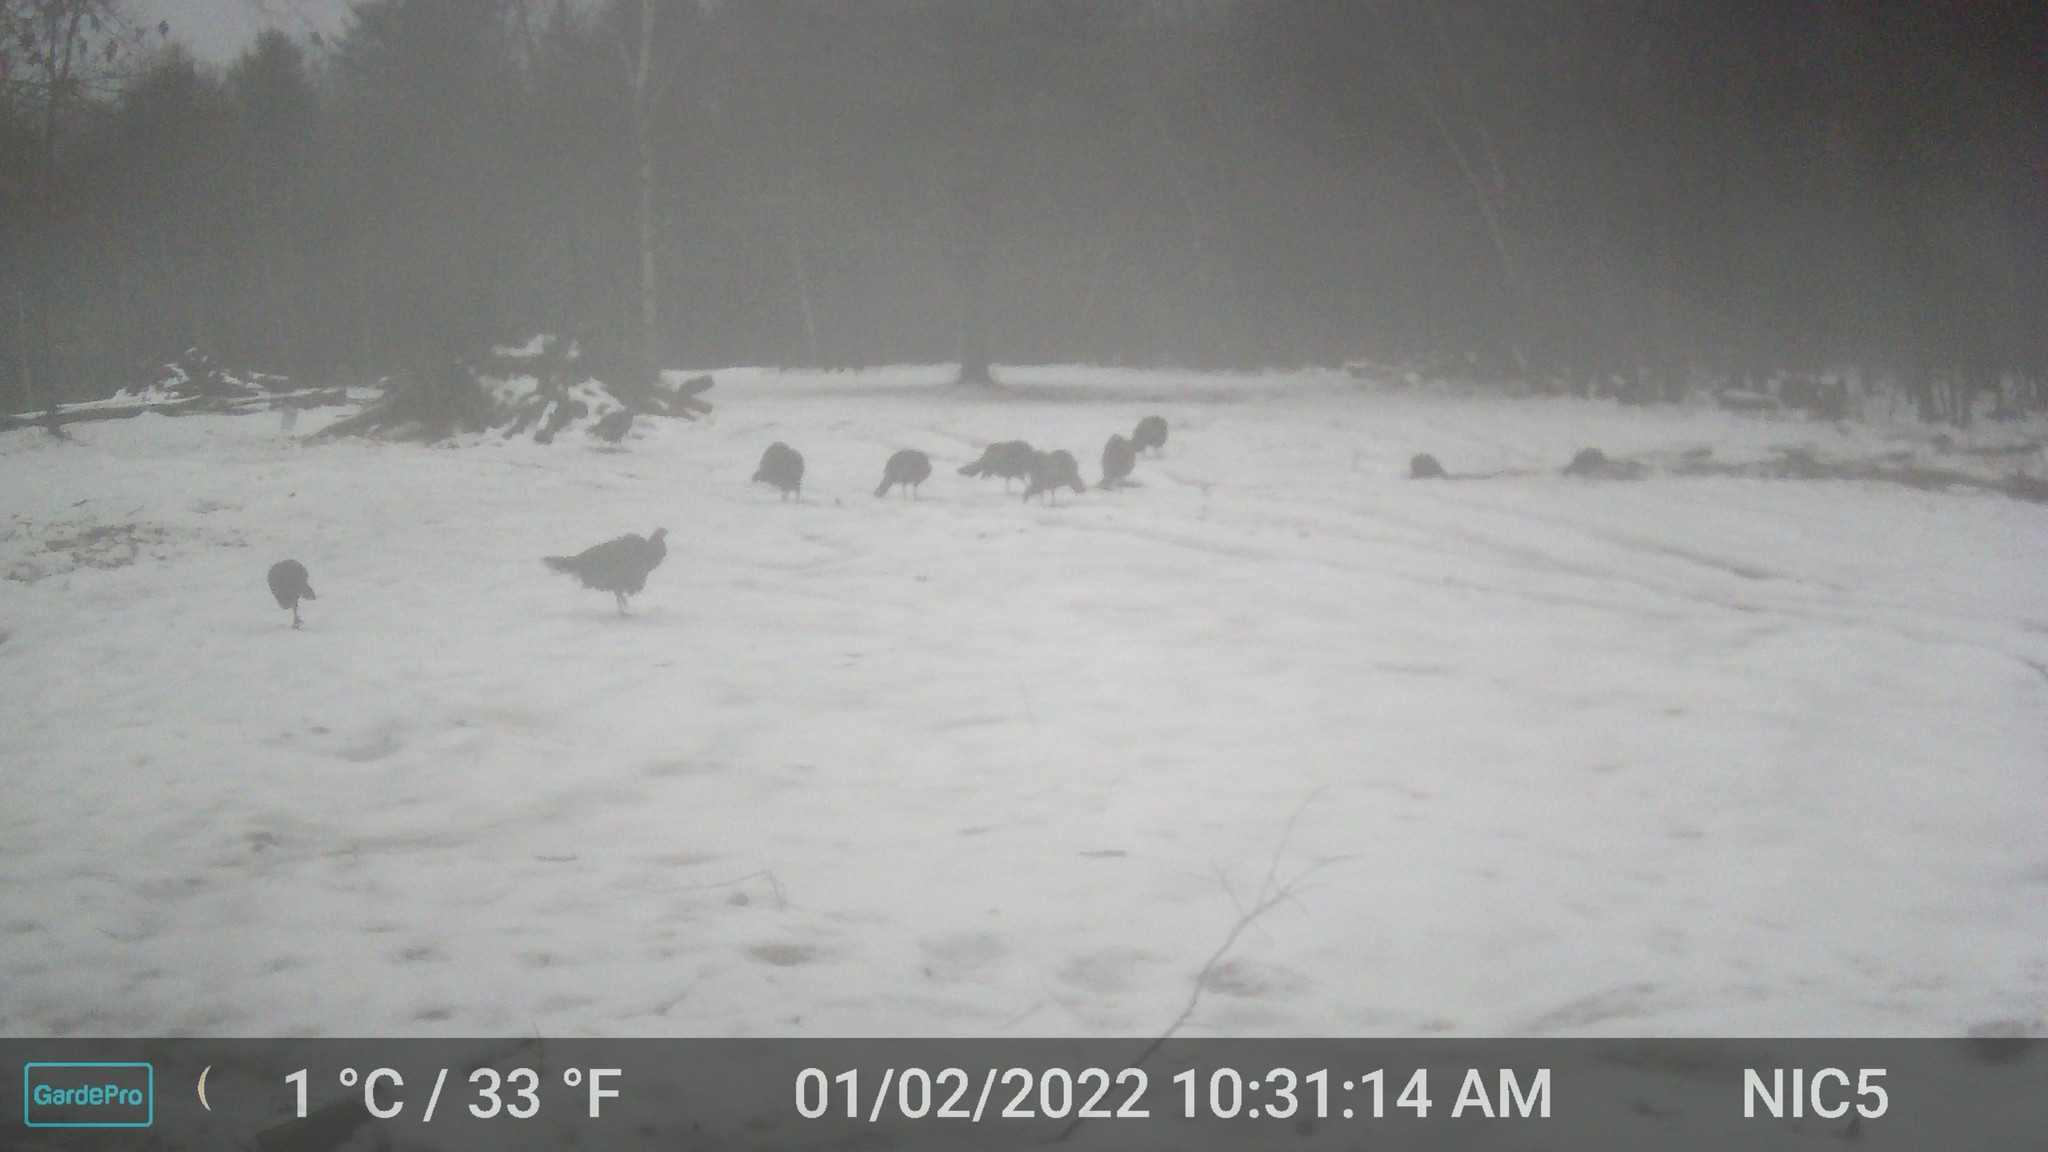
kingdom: Animalia
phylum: Chordata
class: Aves
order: Galliformes
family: Phasianidae
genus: Meleagris
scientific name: Meleagris gallopavo
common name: Wild turkey
